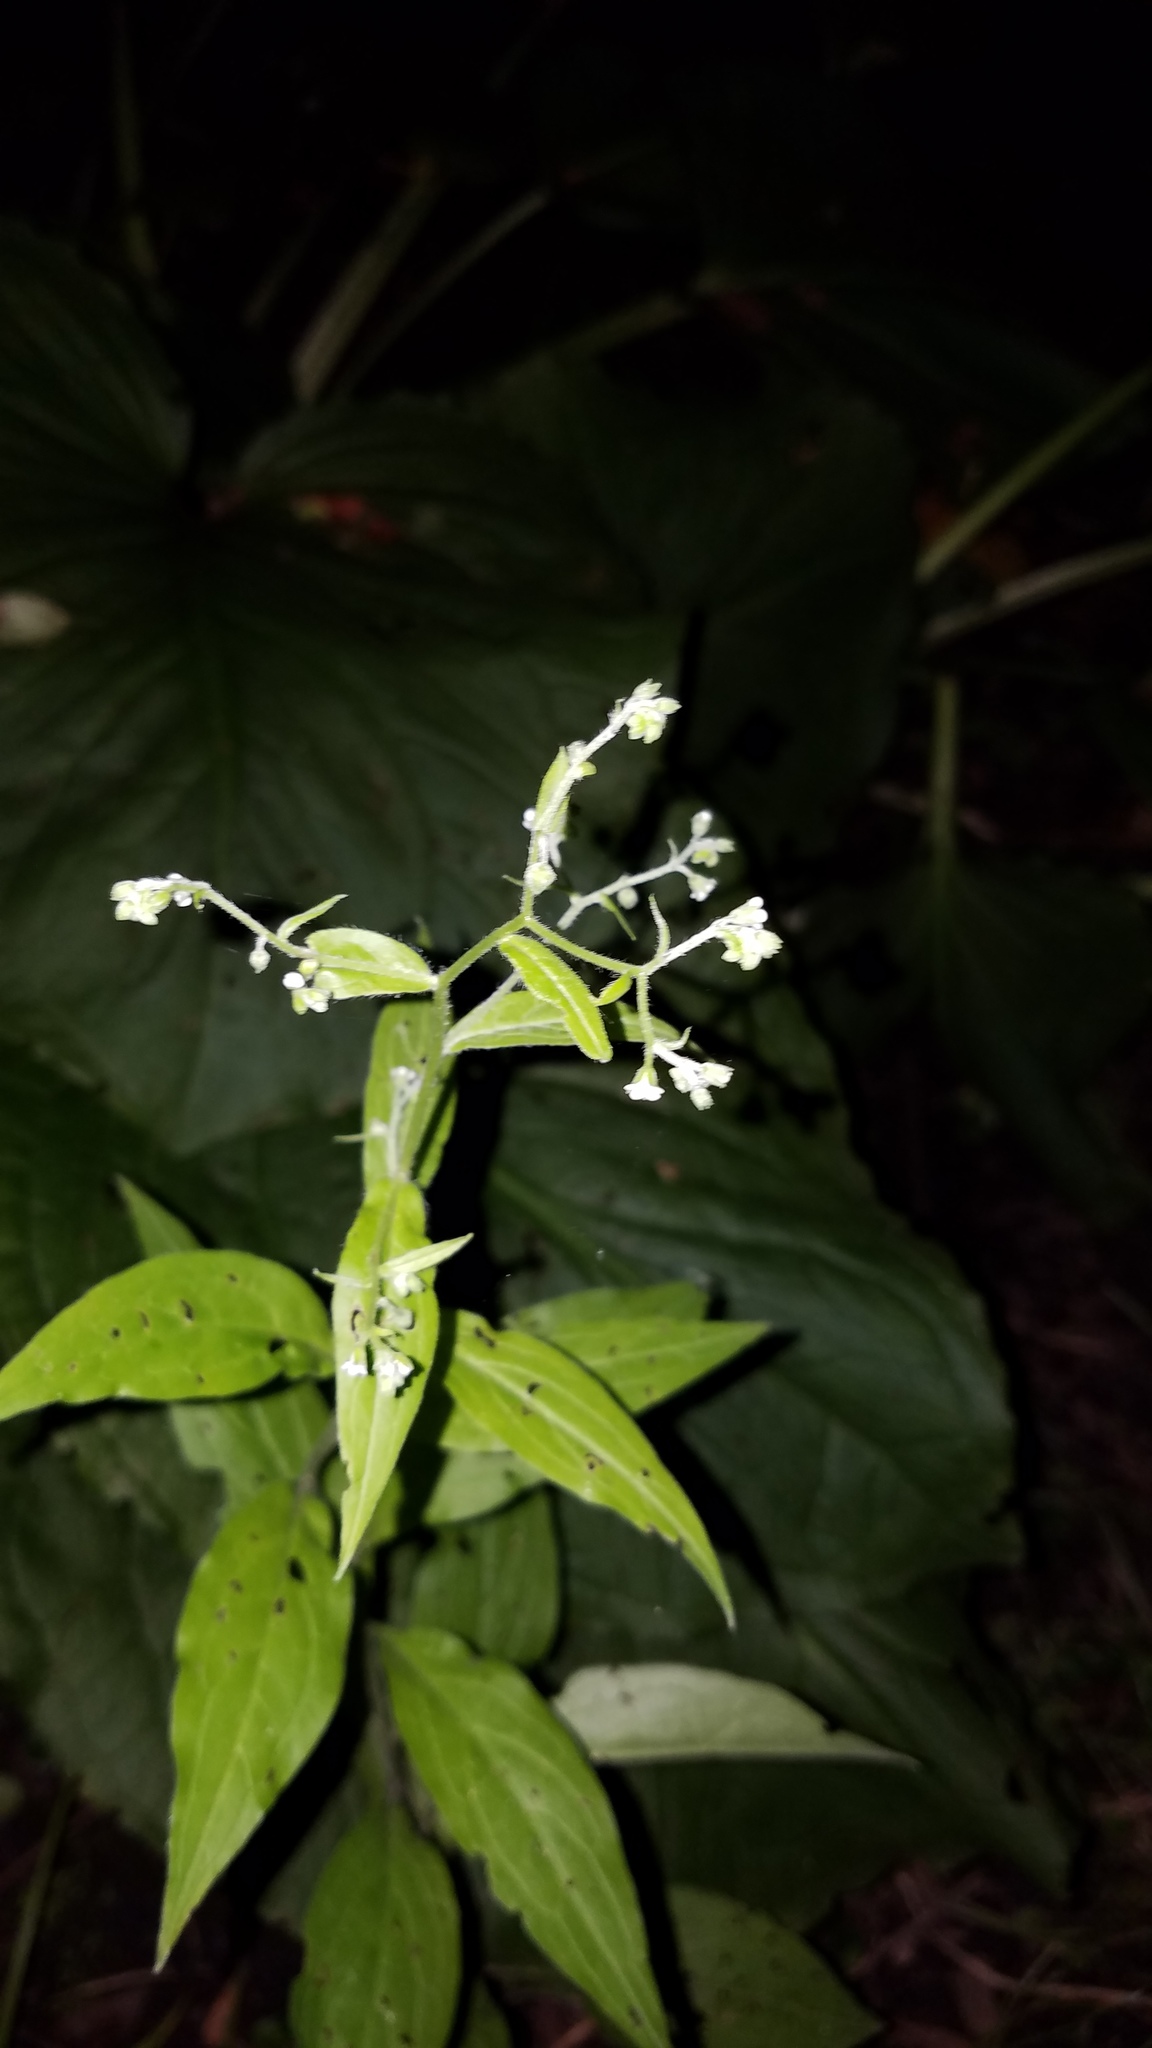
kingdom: Plantae
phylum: Tracheophyta
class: Magnoliopsida
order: Boraginales
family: Boraginaceae
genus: Hackelia
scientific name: Hackelia virginiana
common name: Beggar's-lice
